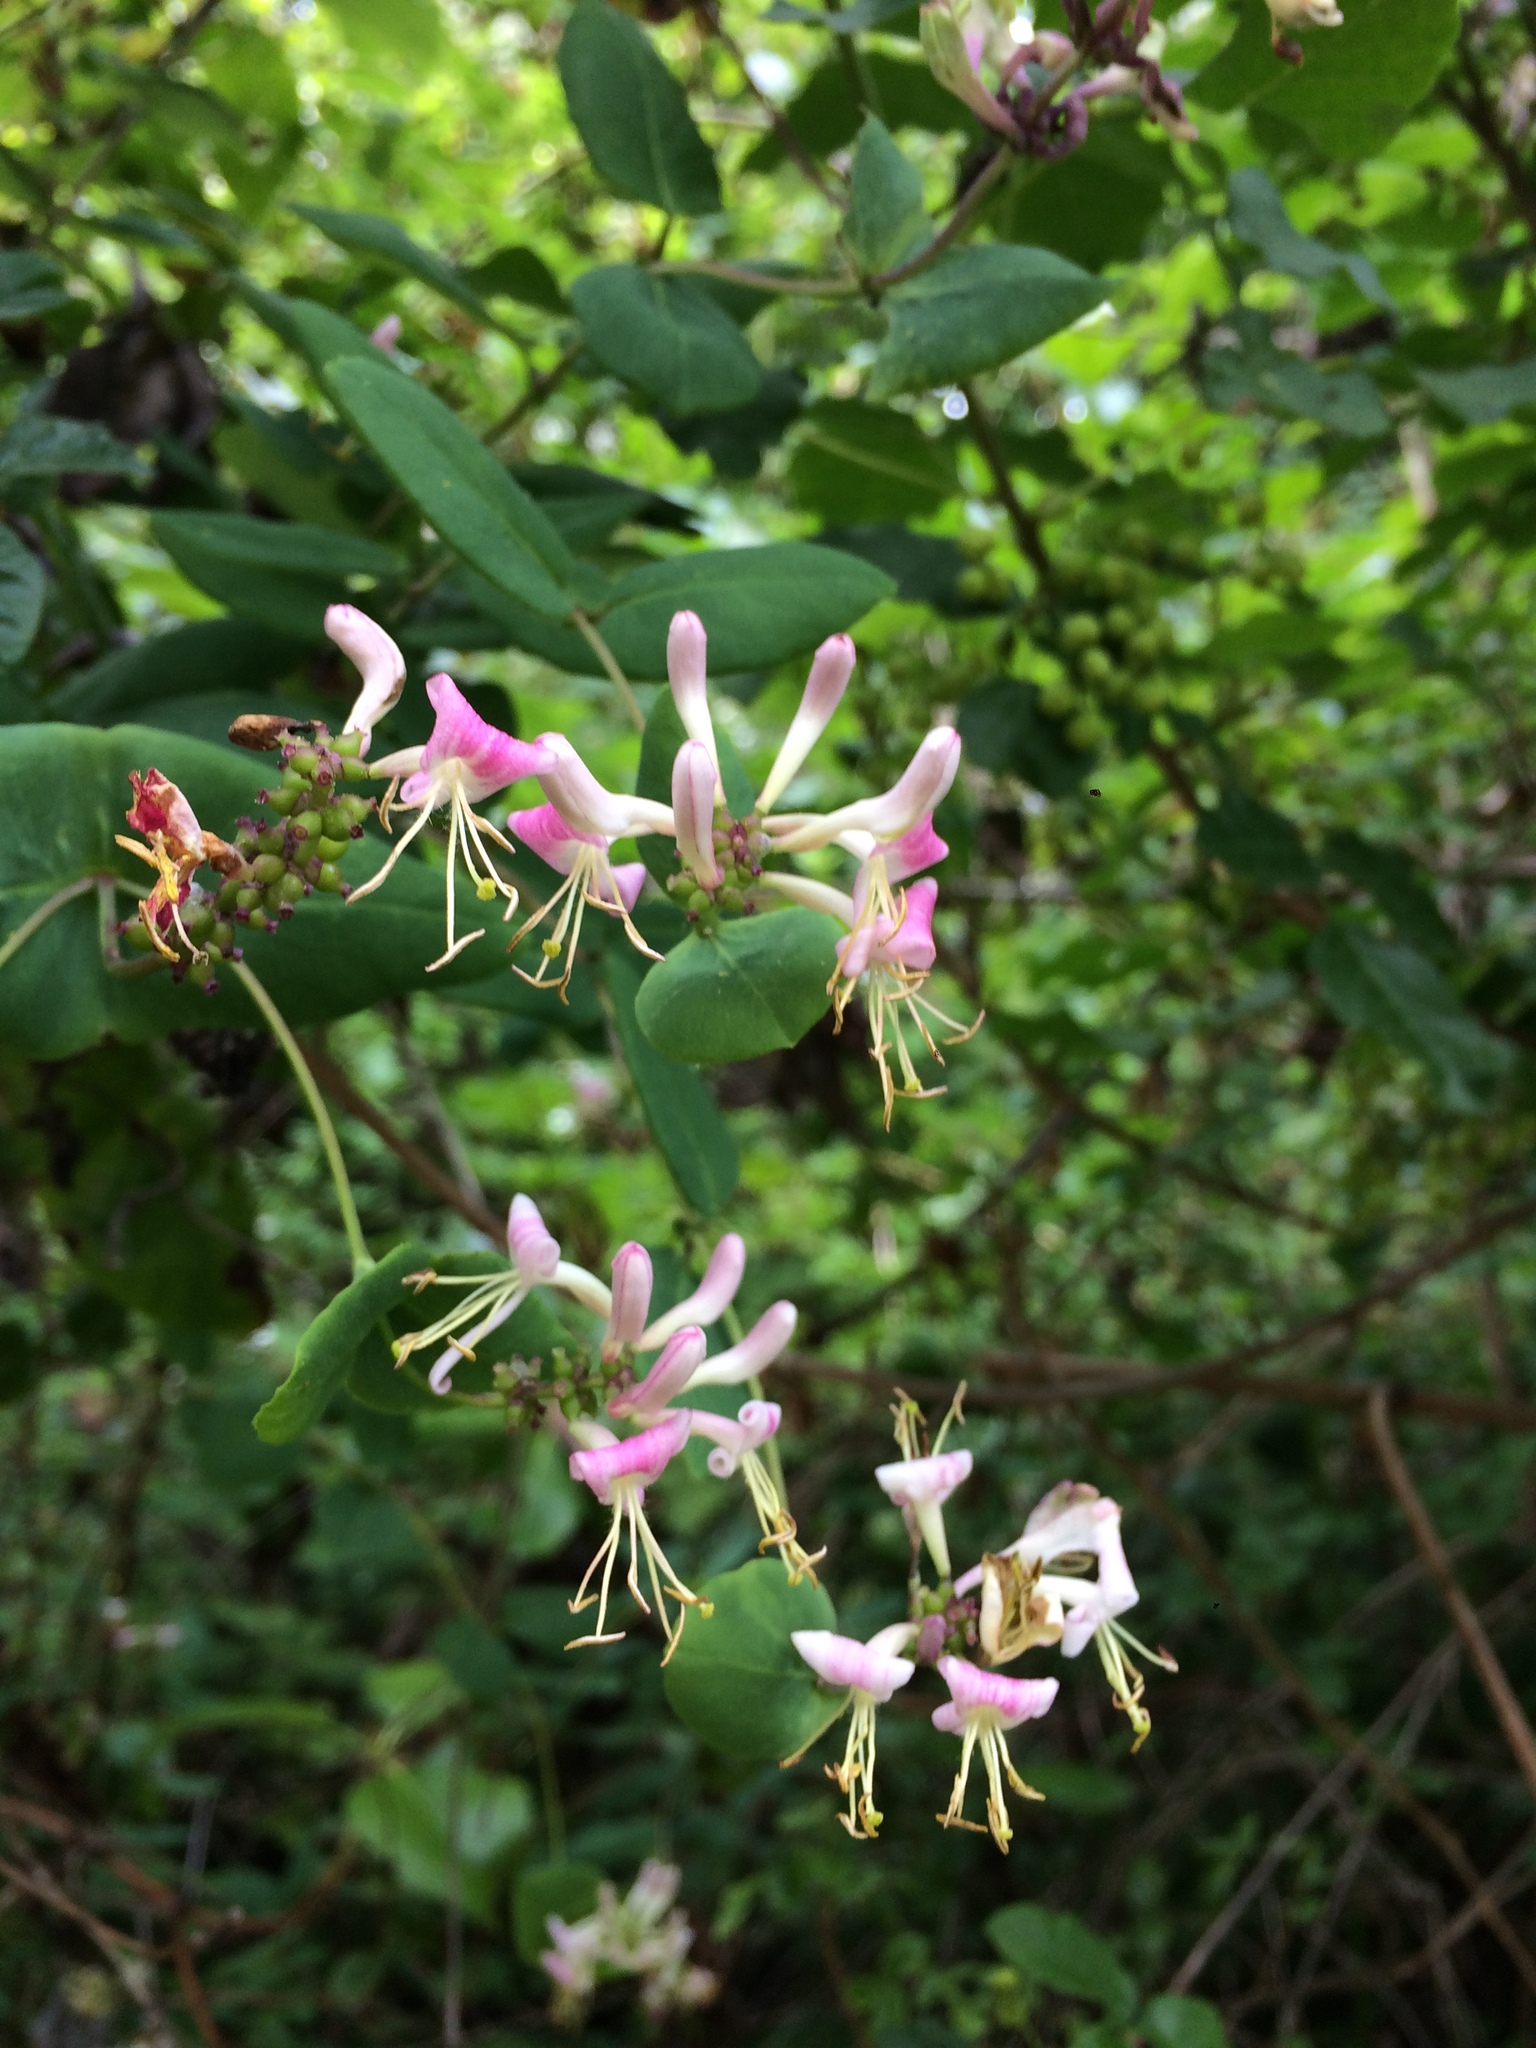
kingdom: Plantae
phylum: Tracheophyta
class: Magnoliopsida
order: Dipsacales
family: Caprifoliaceae
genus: Lonicera
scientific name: Lonicera hispidula
